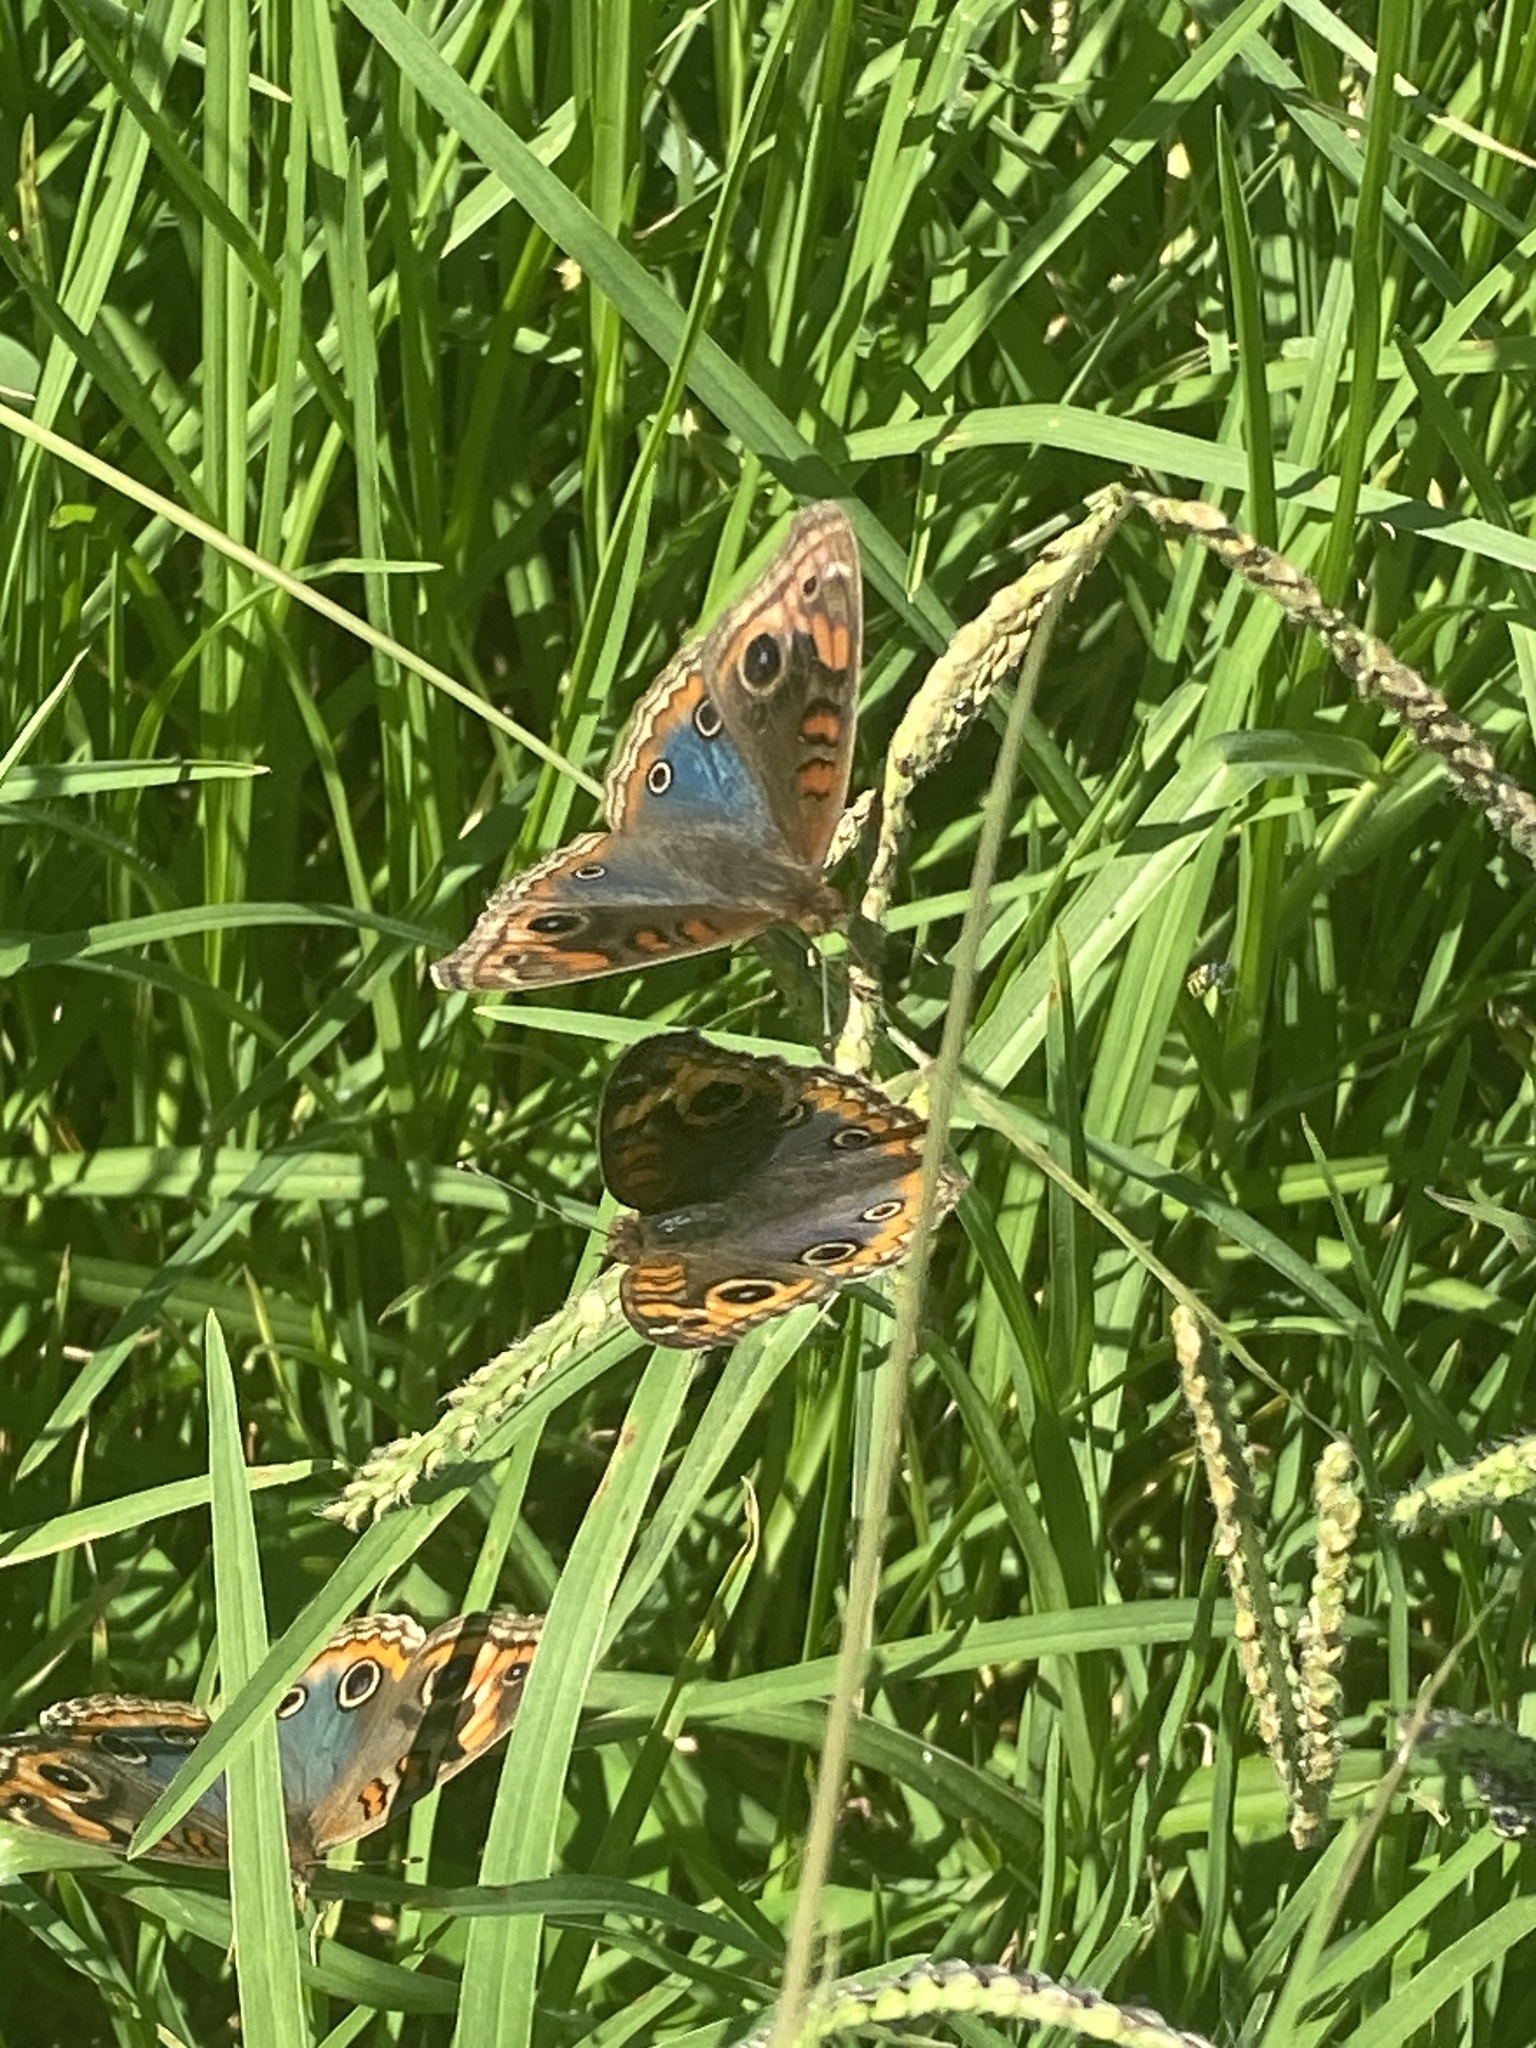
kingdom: Animalia
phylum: Arthropoda
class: Insecta
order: Lepidoptera
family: Nymphalidae
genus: Junonia
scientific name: Junonia lavinia
